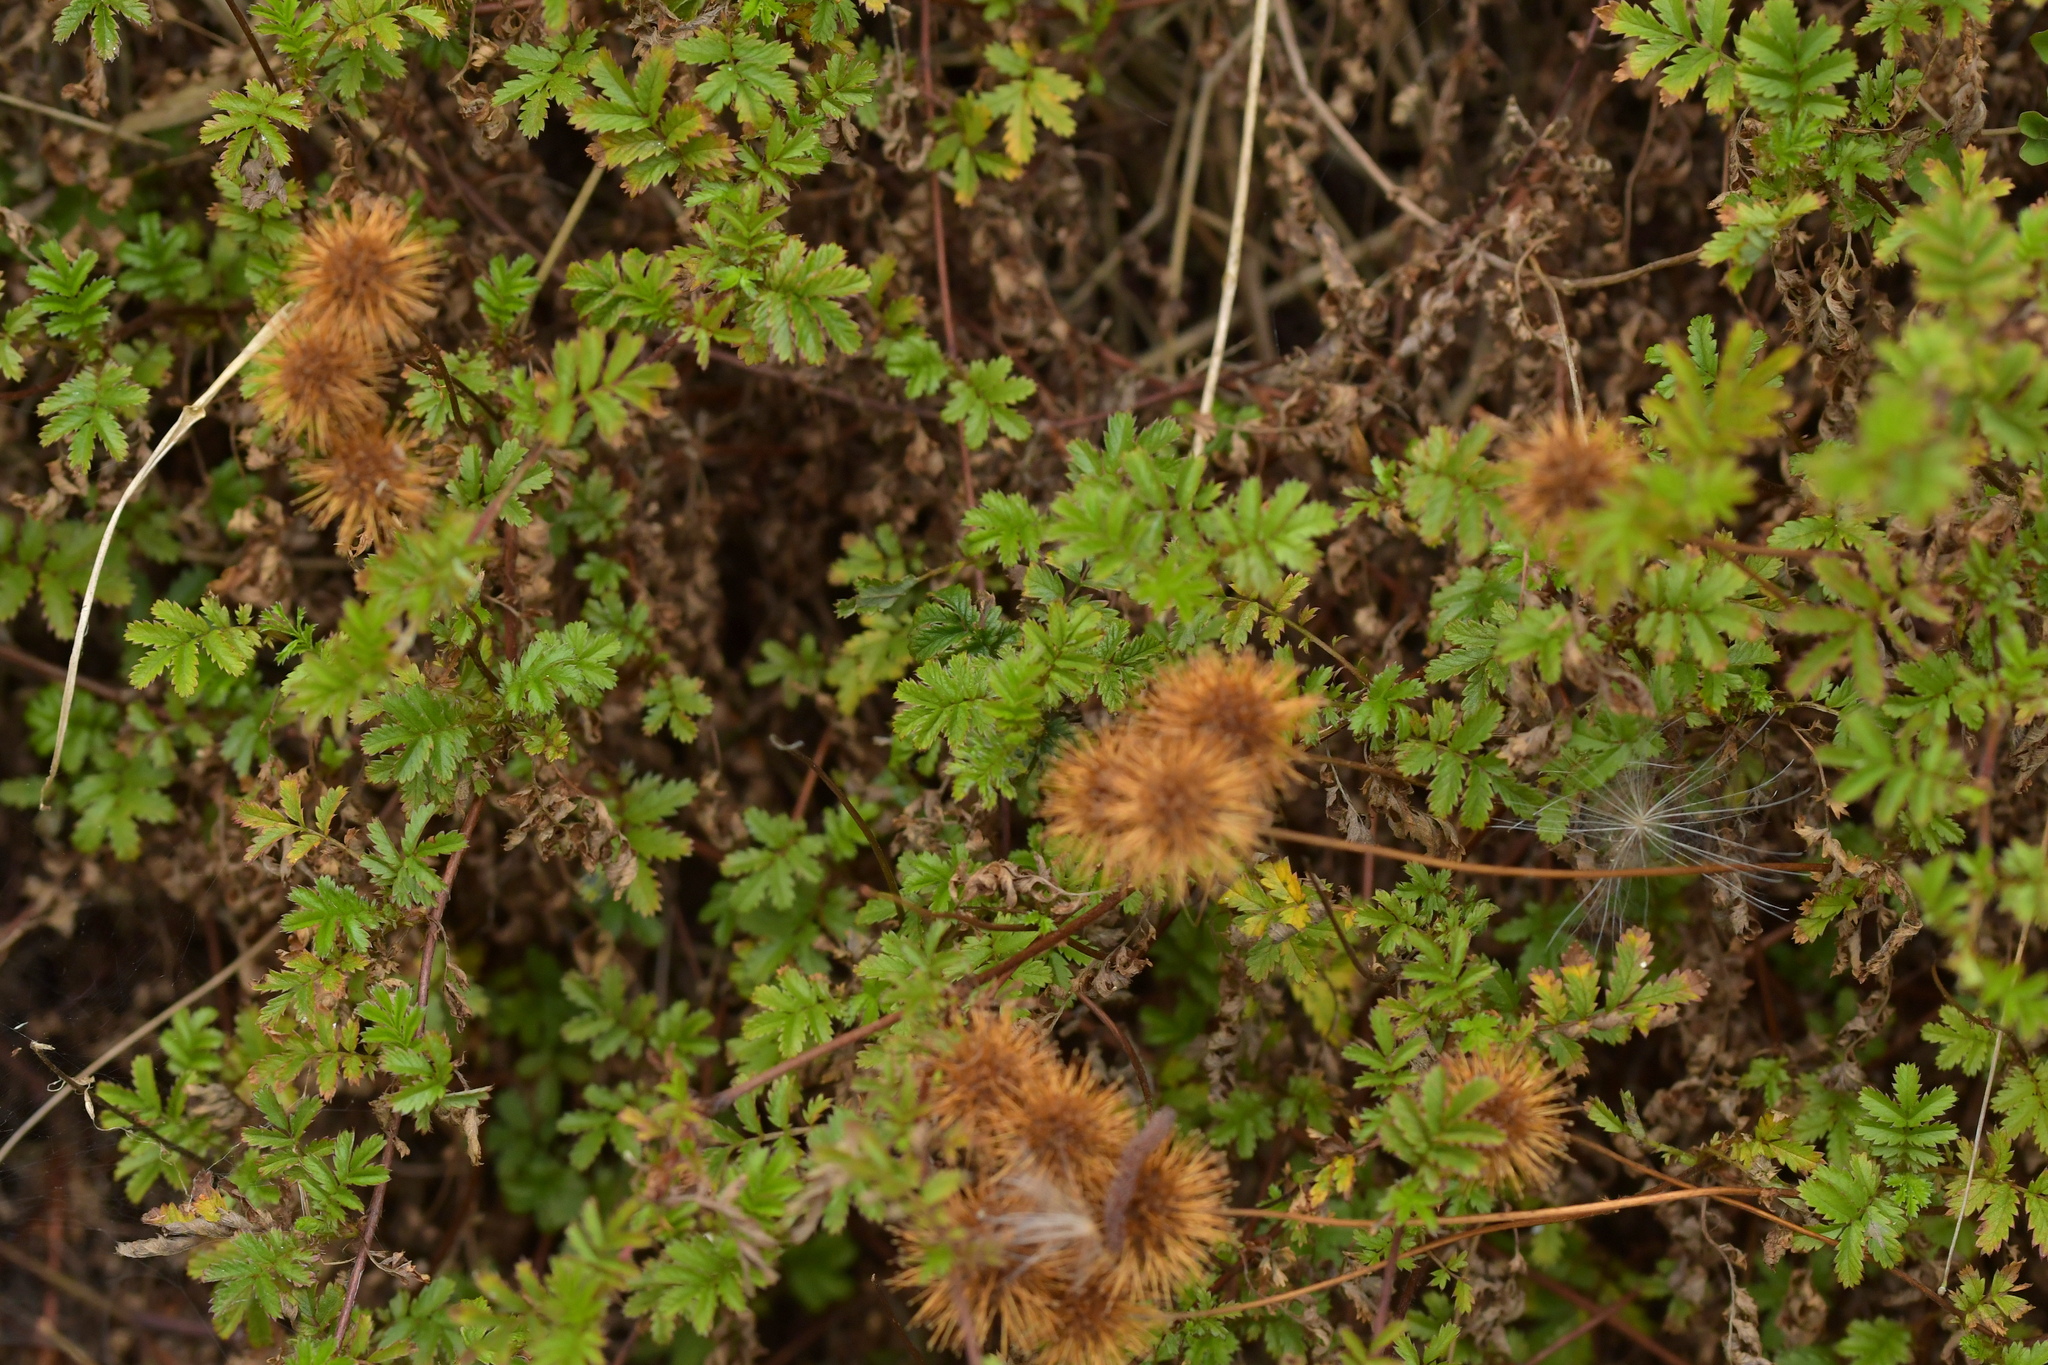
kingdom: Plantae
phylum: Tracheophyta
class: Magnoliopsida
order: Rosales
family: Rosaceae
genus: Acaena
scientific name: Acaena novae-zelandiae
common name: Pirri-pirri-bur
